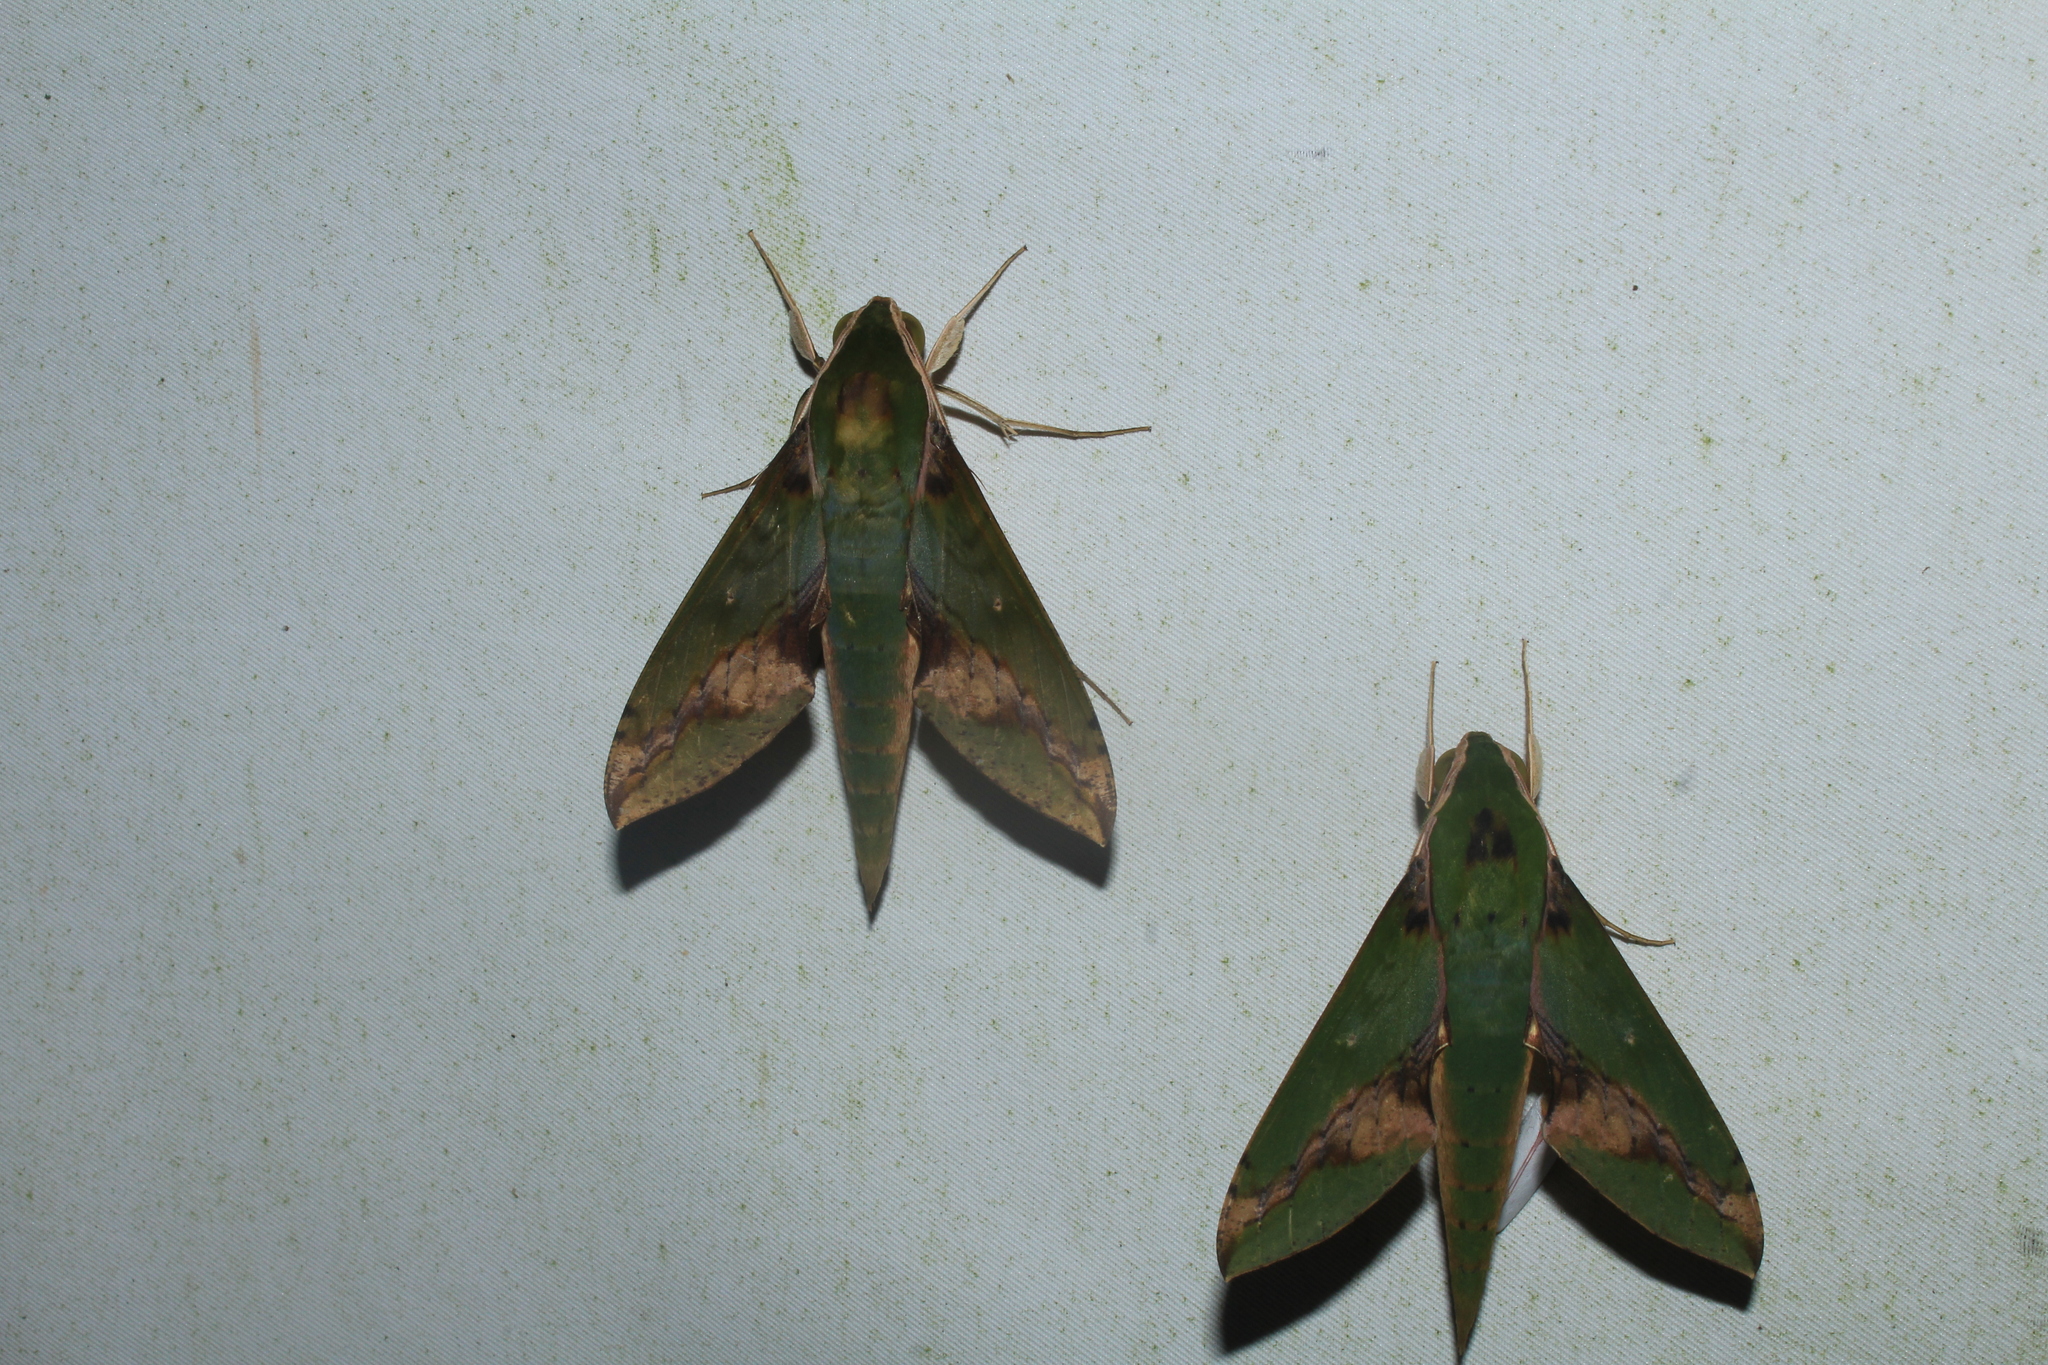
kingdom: Animalia
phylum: Arthropoda
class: Insecta
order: Lepidoptera
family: Sphingidae
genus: Xylophanes
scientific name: Xylophanes chiron
